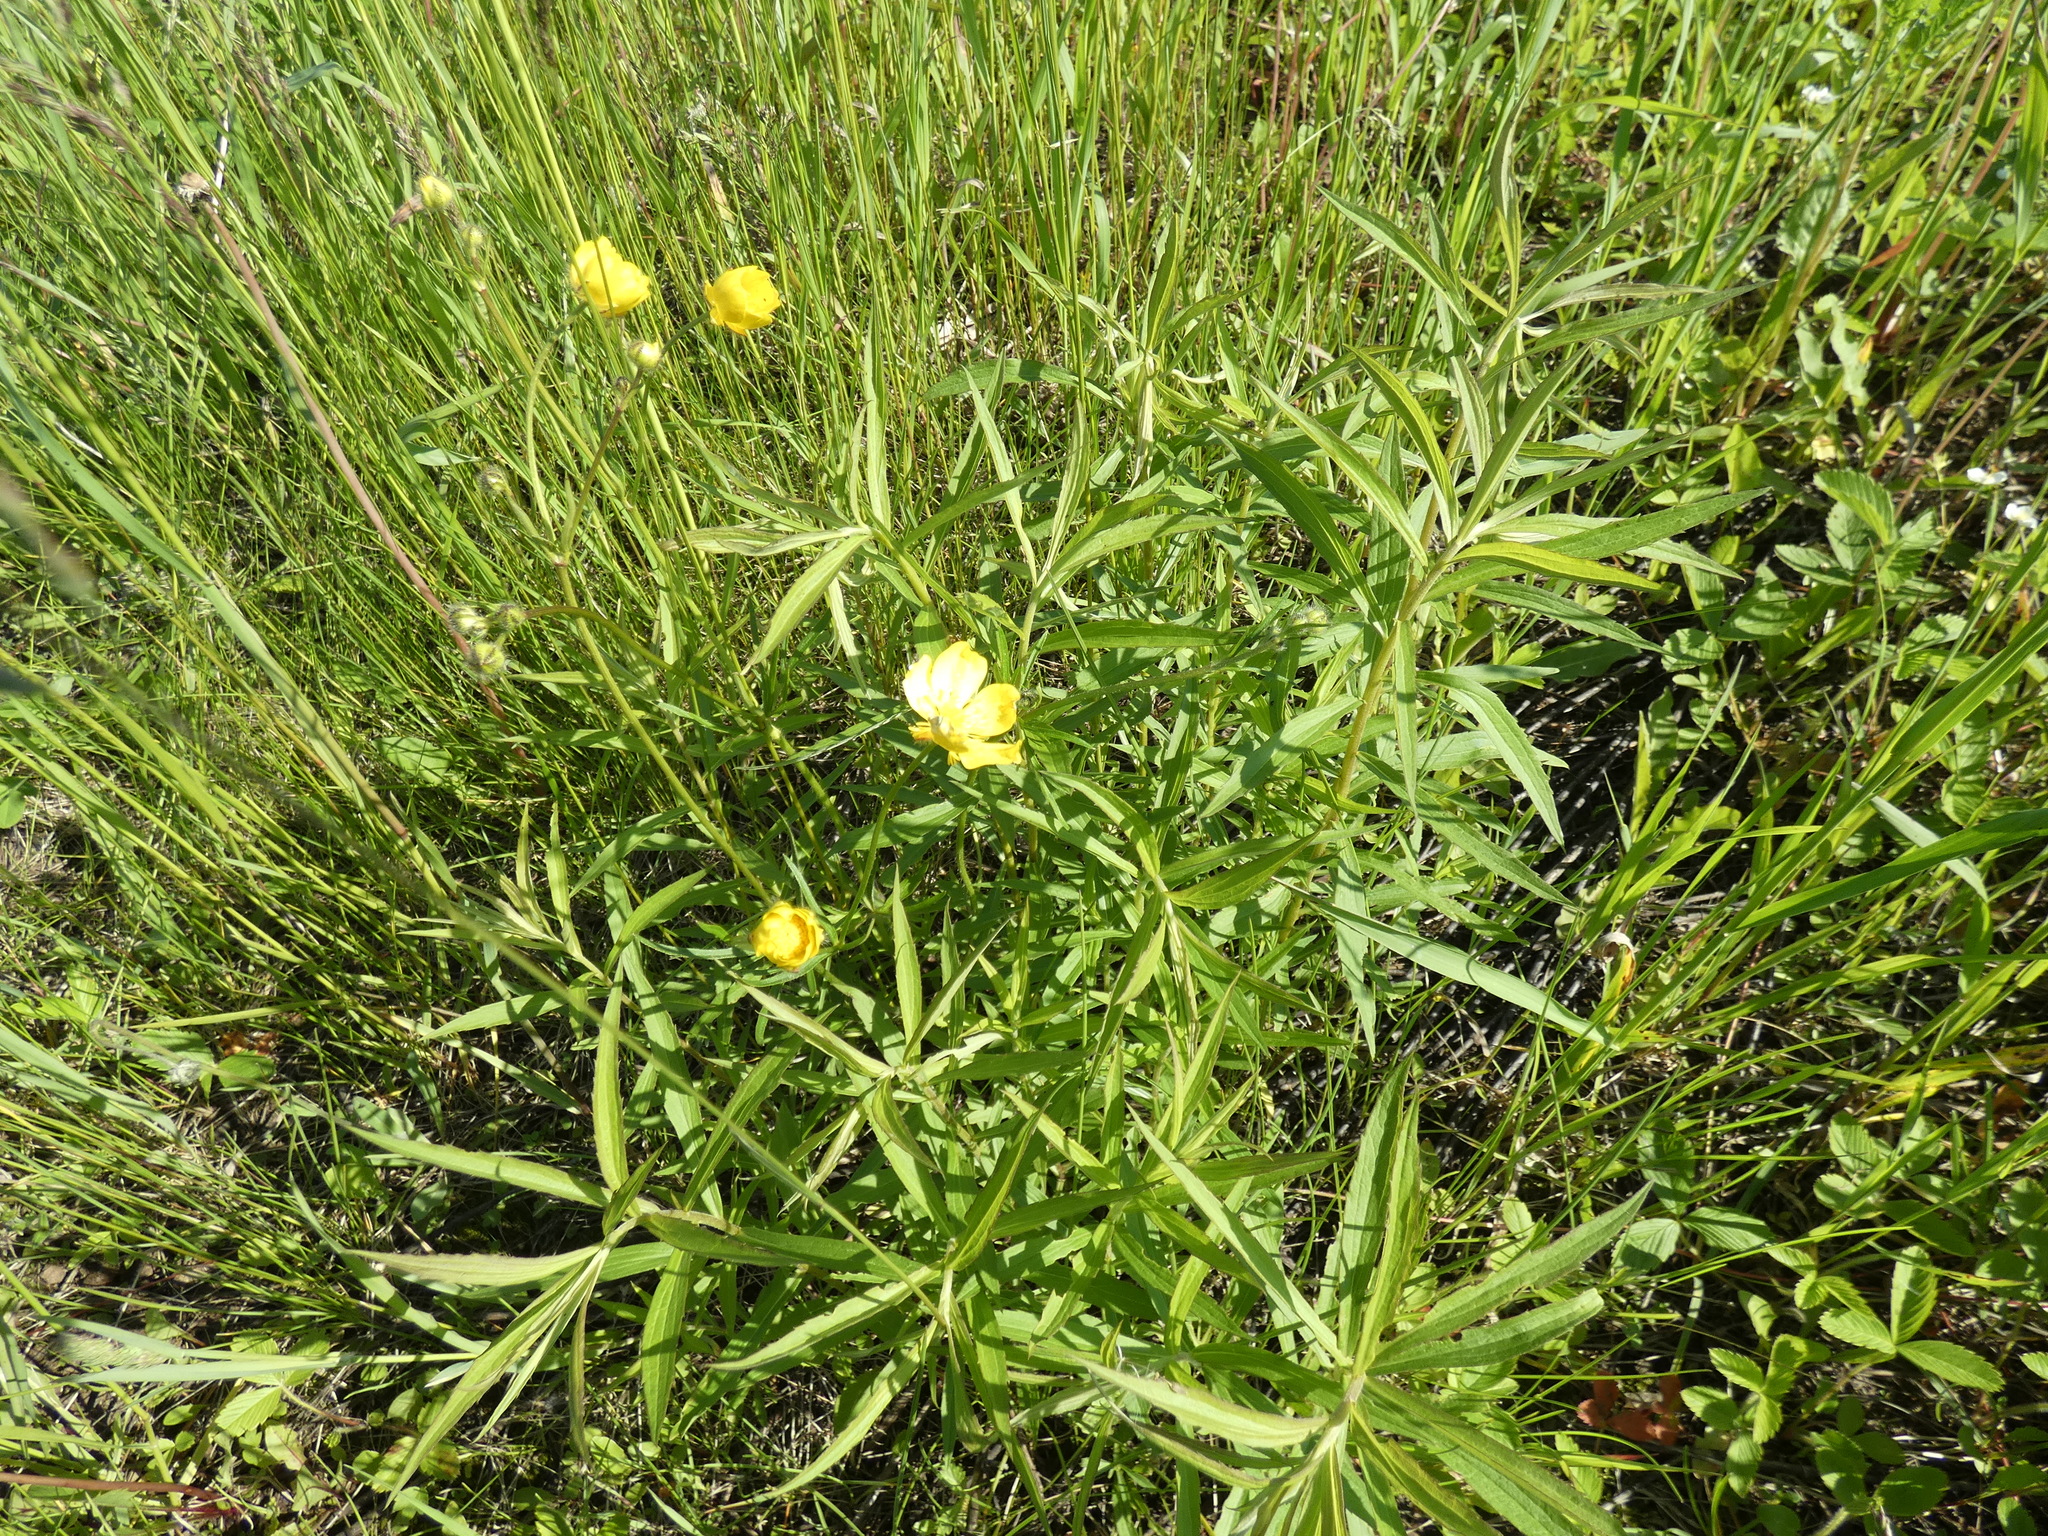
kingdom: Plantae
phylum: Tracheophyta
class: Magnoliopsida
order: Ranunculales
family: Ranunculaceae
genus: Ranunculus
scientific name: Ranunculus polyanthemos
